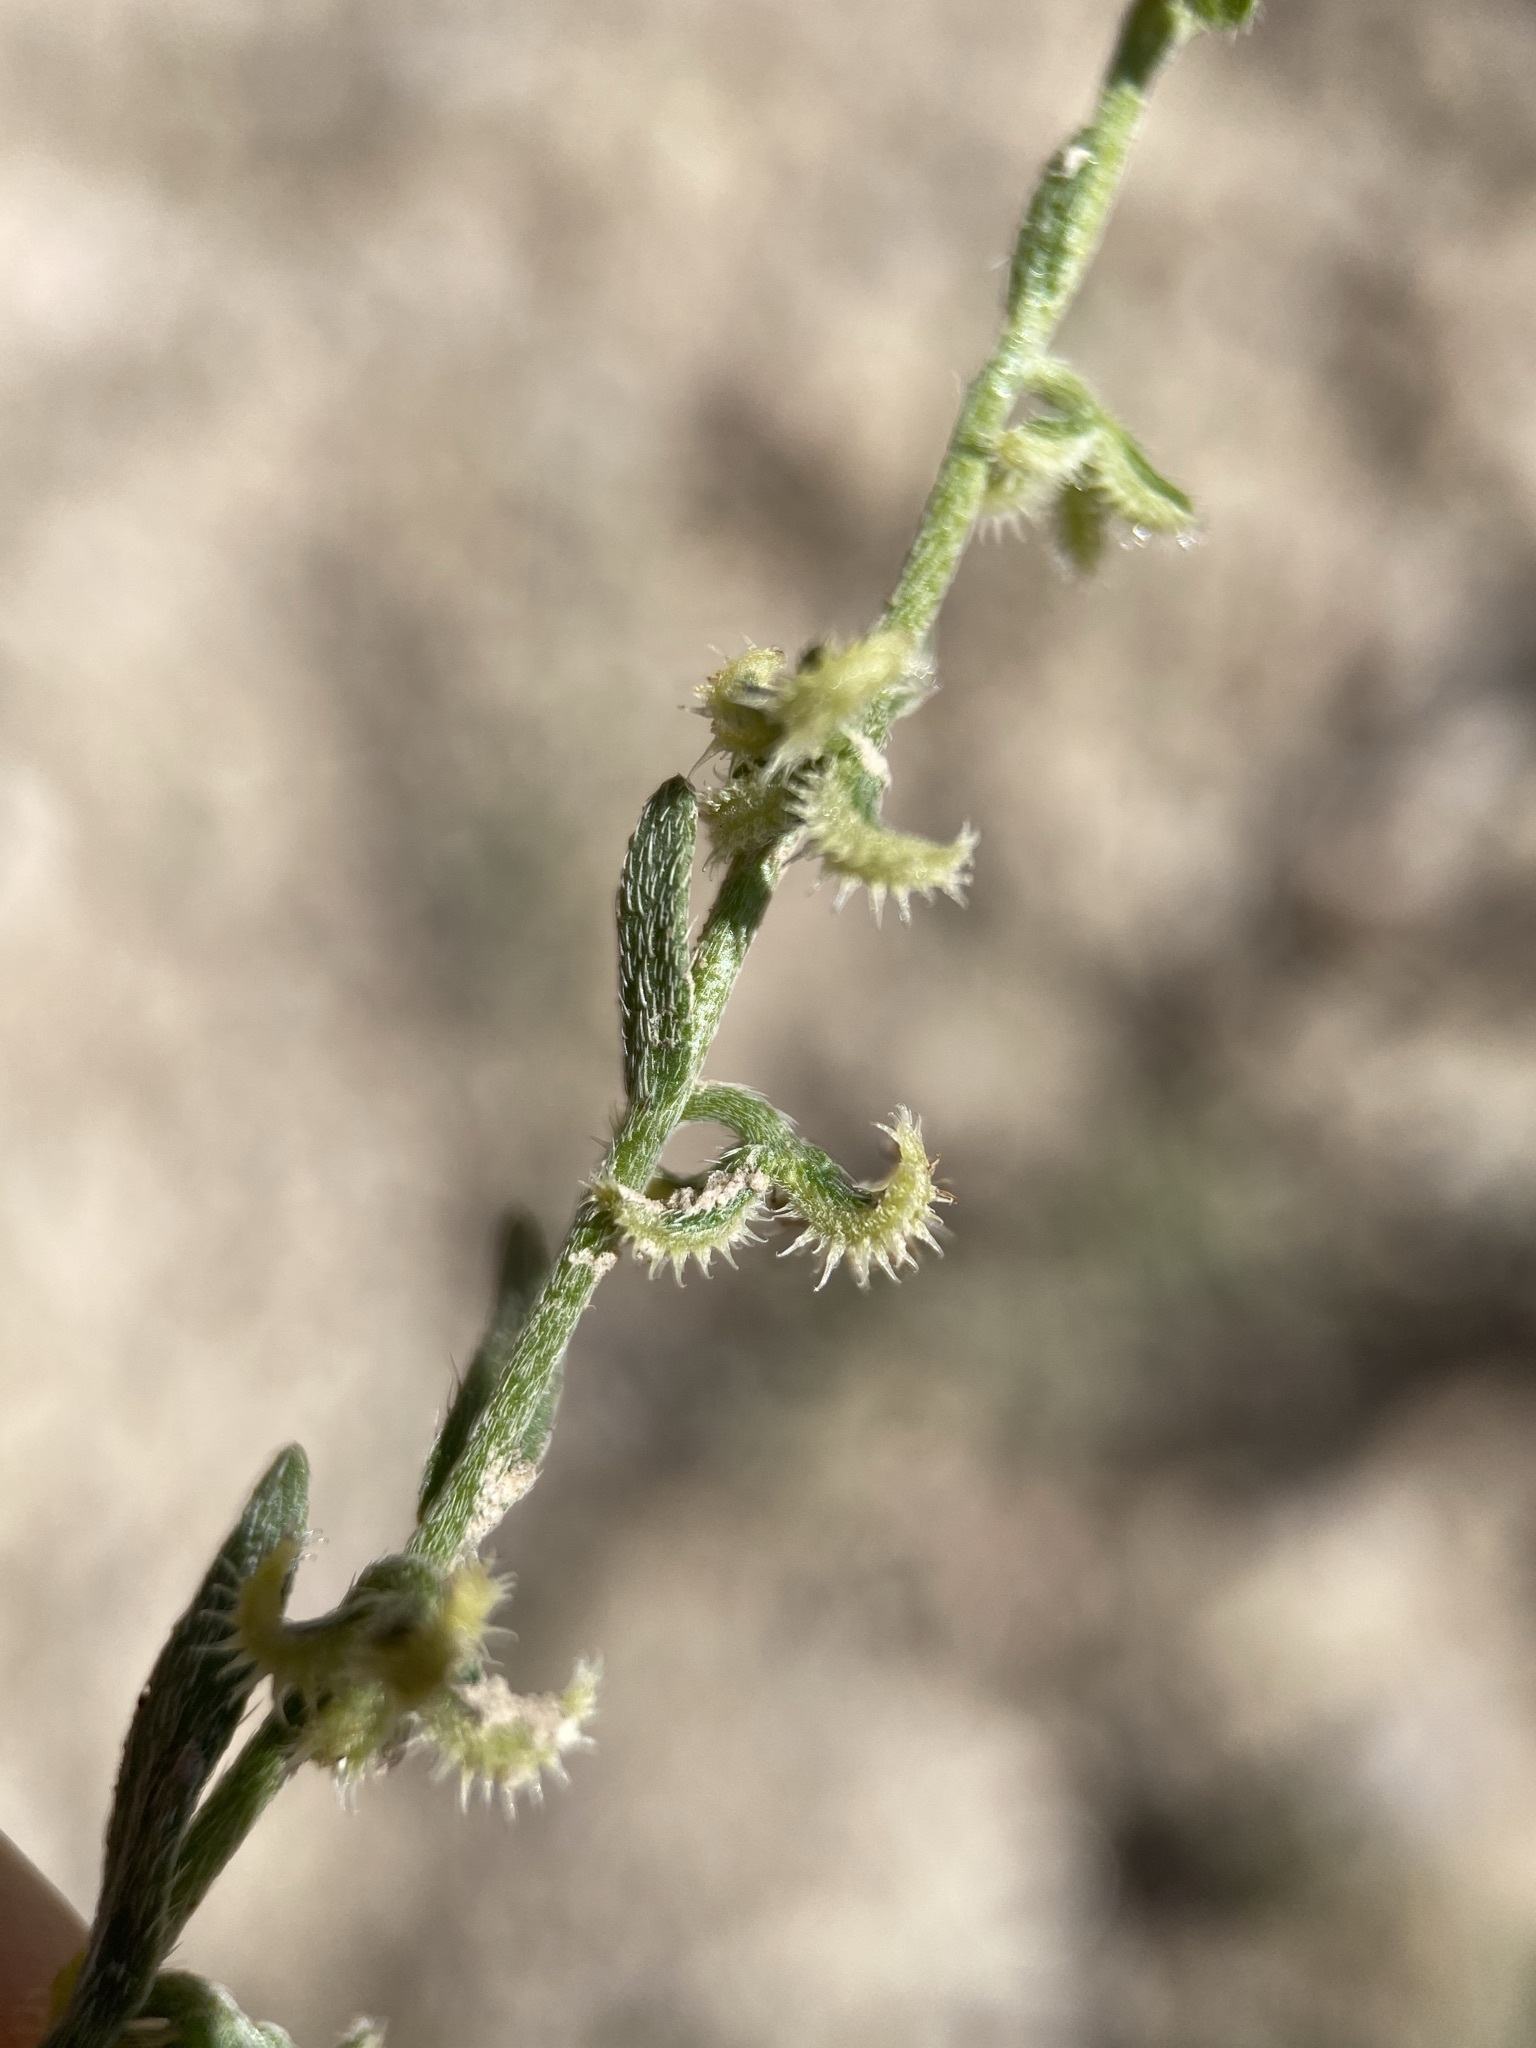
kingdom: Plantae
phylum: Tracheophyta
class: Magnoliopsida
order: Boraginales
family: Boraginaceae
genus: Pectocarya
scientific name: Pectocarya recurvata
